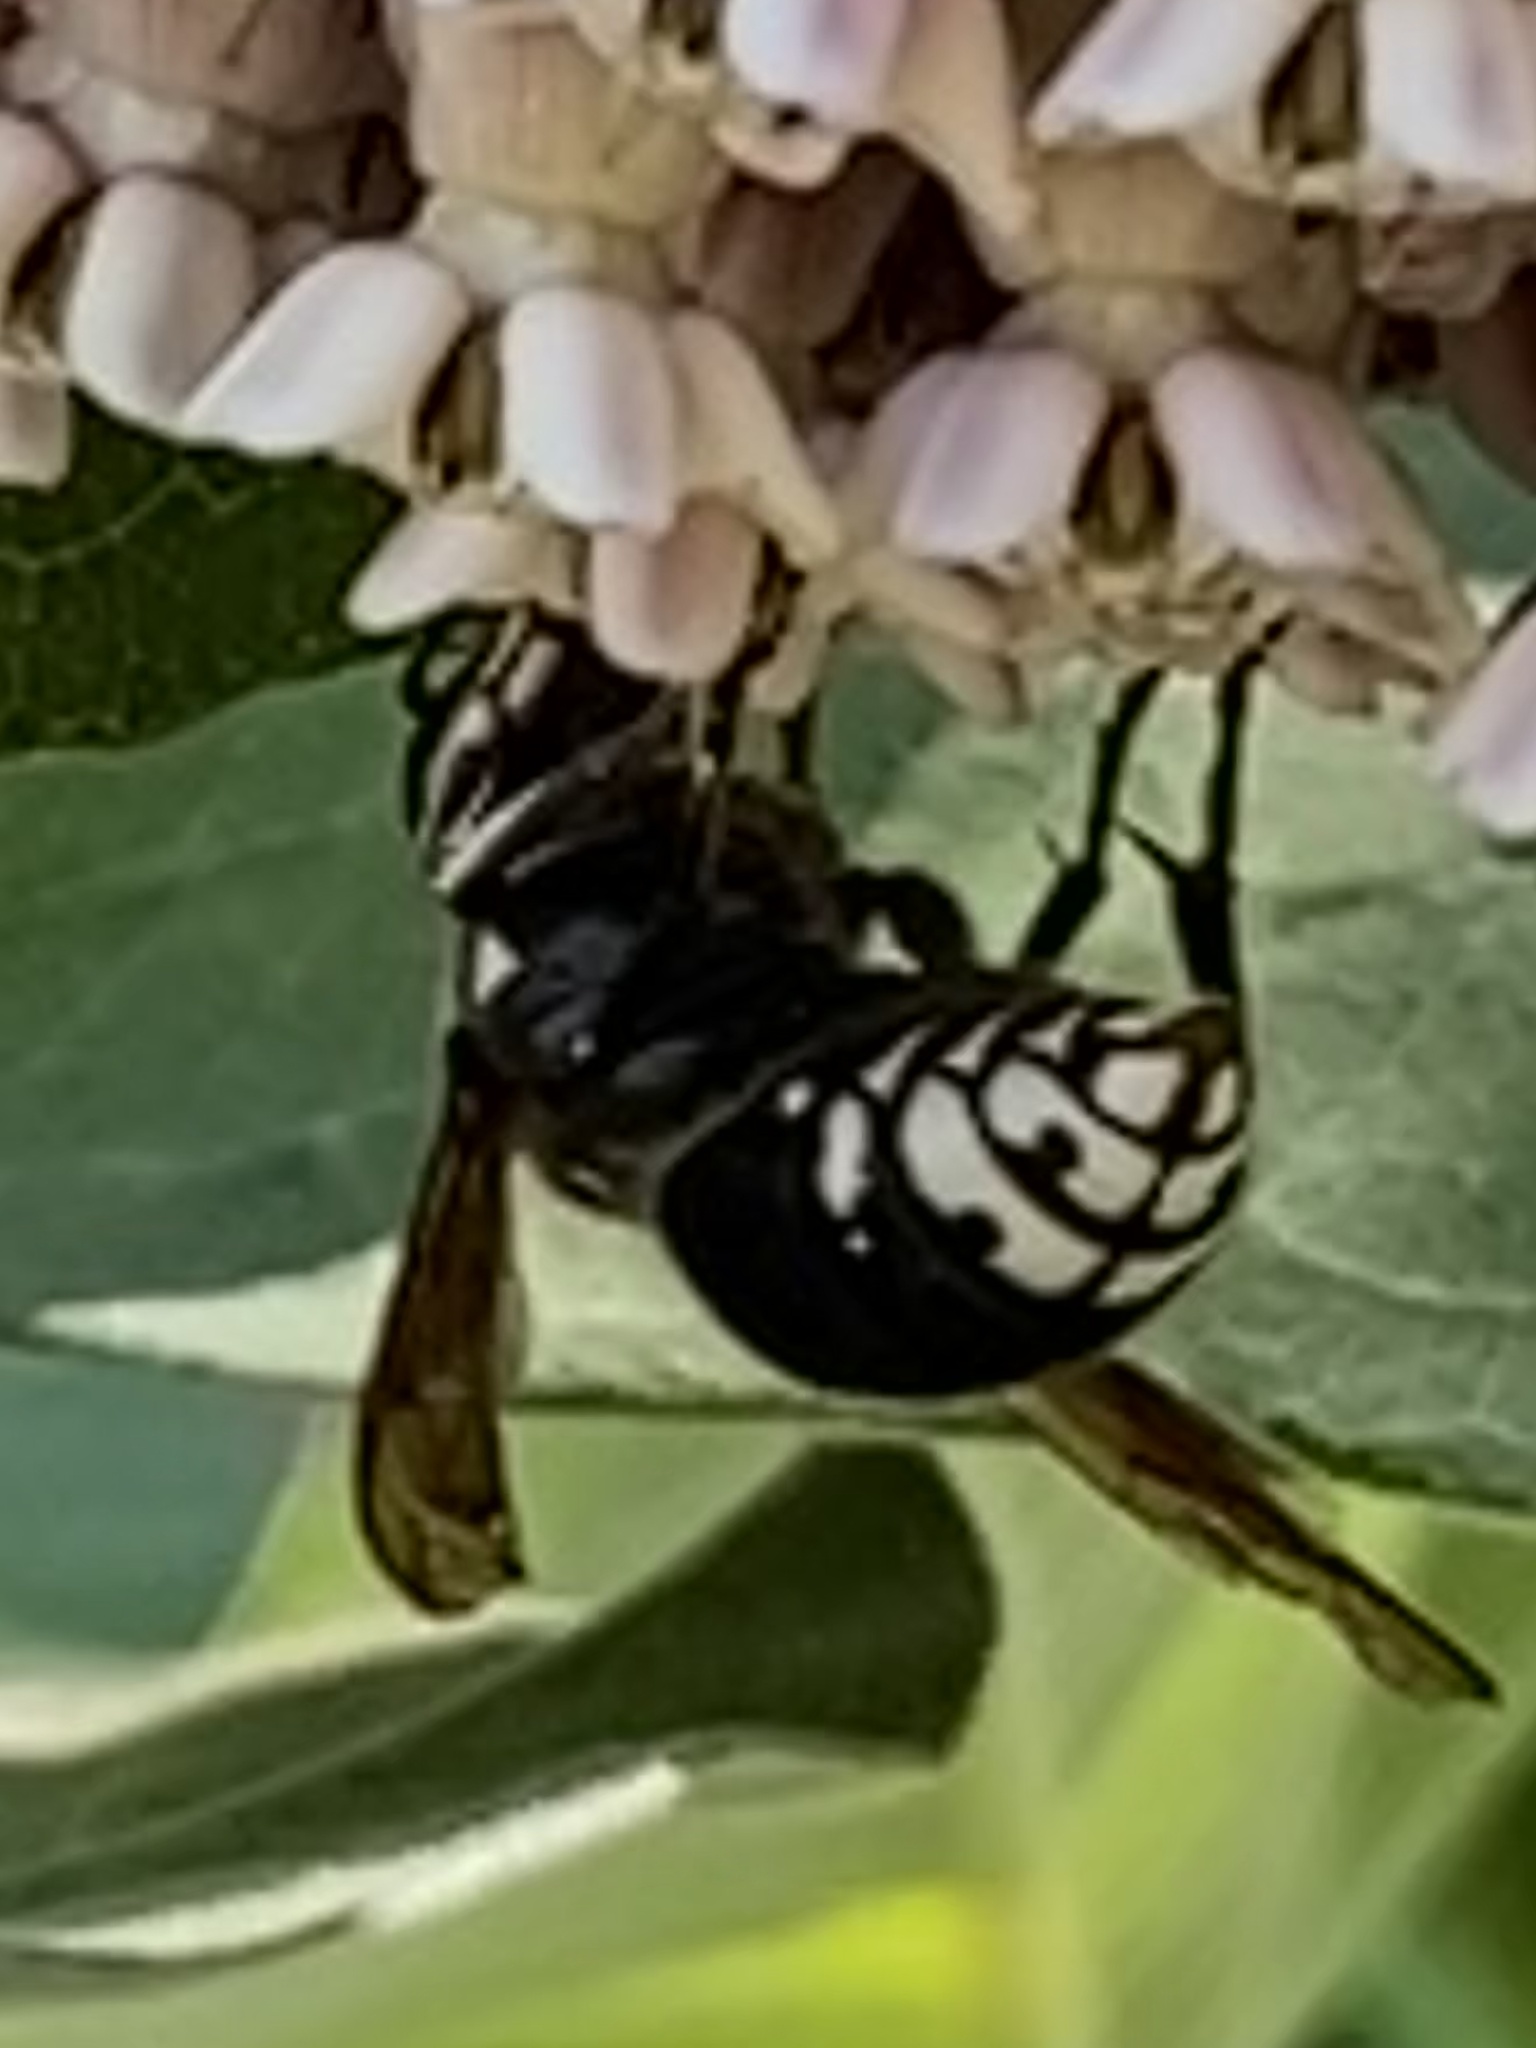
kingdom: Animalia
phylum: Arthropoda
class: Insecta
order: Hymenoptera
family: Vespidae
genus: Dolichovespula
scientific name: Dolichovespula maculata
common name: Bald-faced hornet
